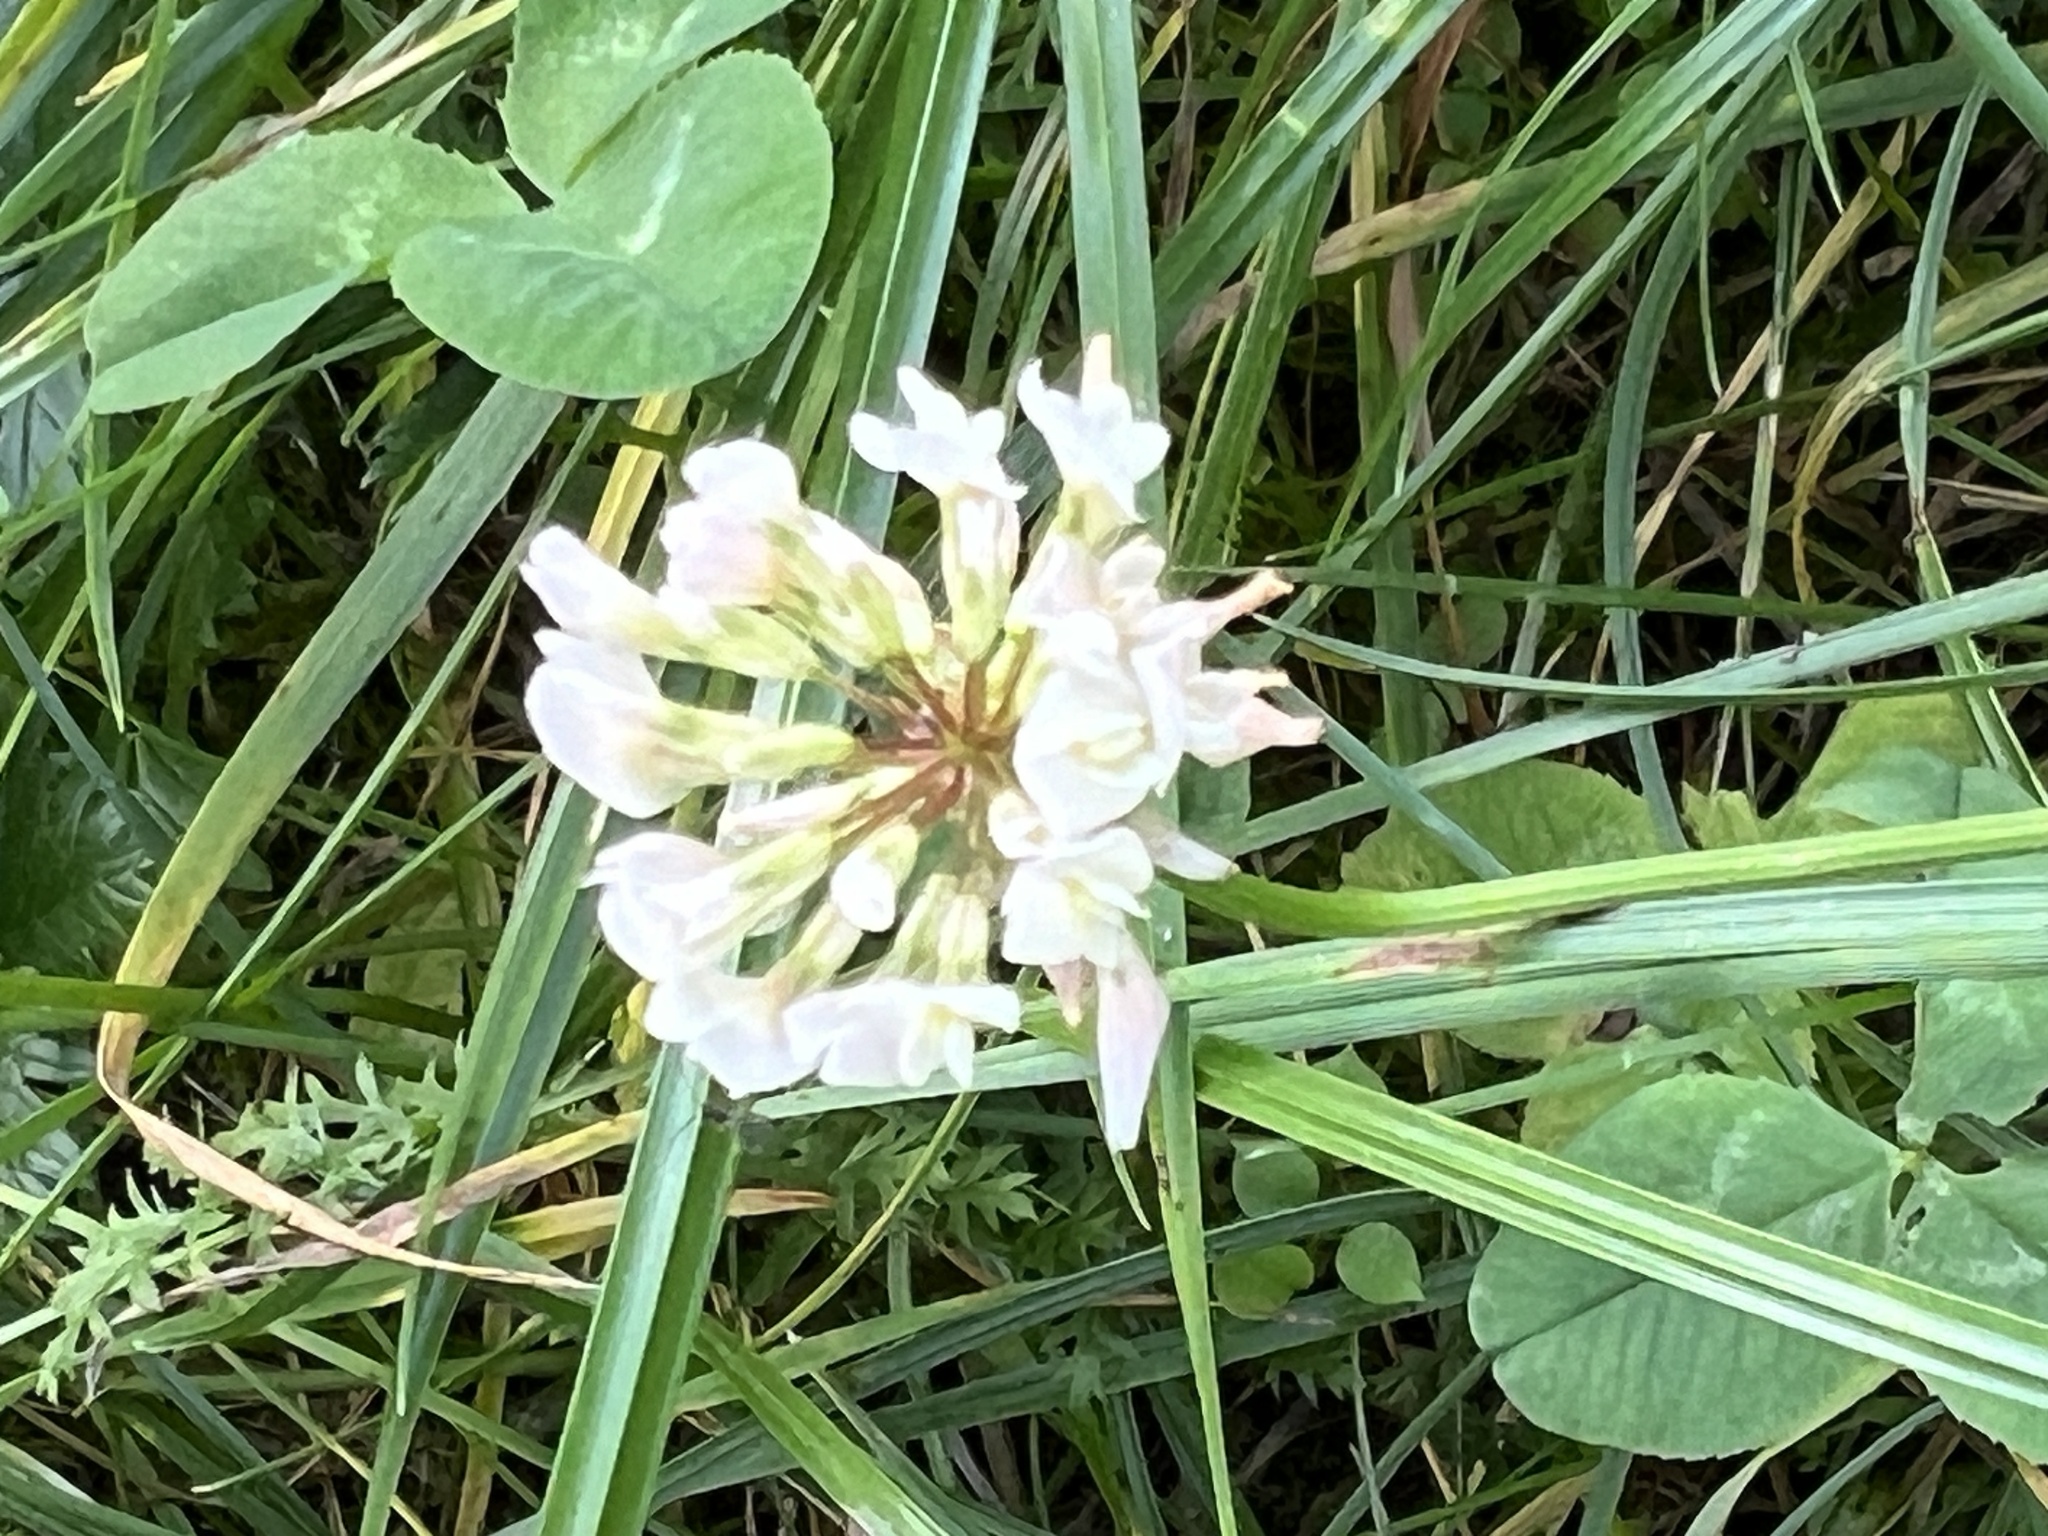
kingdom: Plantae
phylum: Tracheophyta
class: Magnoliopsida
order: Fabales
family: Fabaceae
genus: Trifolium
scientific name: Trifolium repens
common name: White clover
